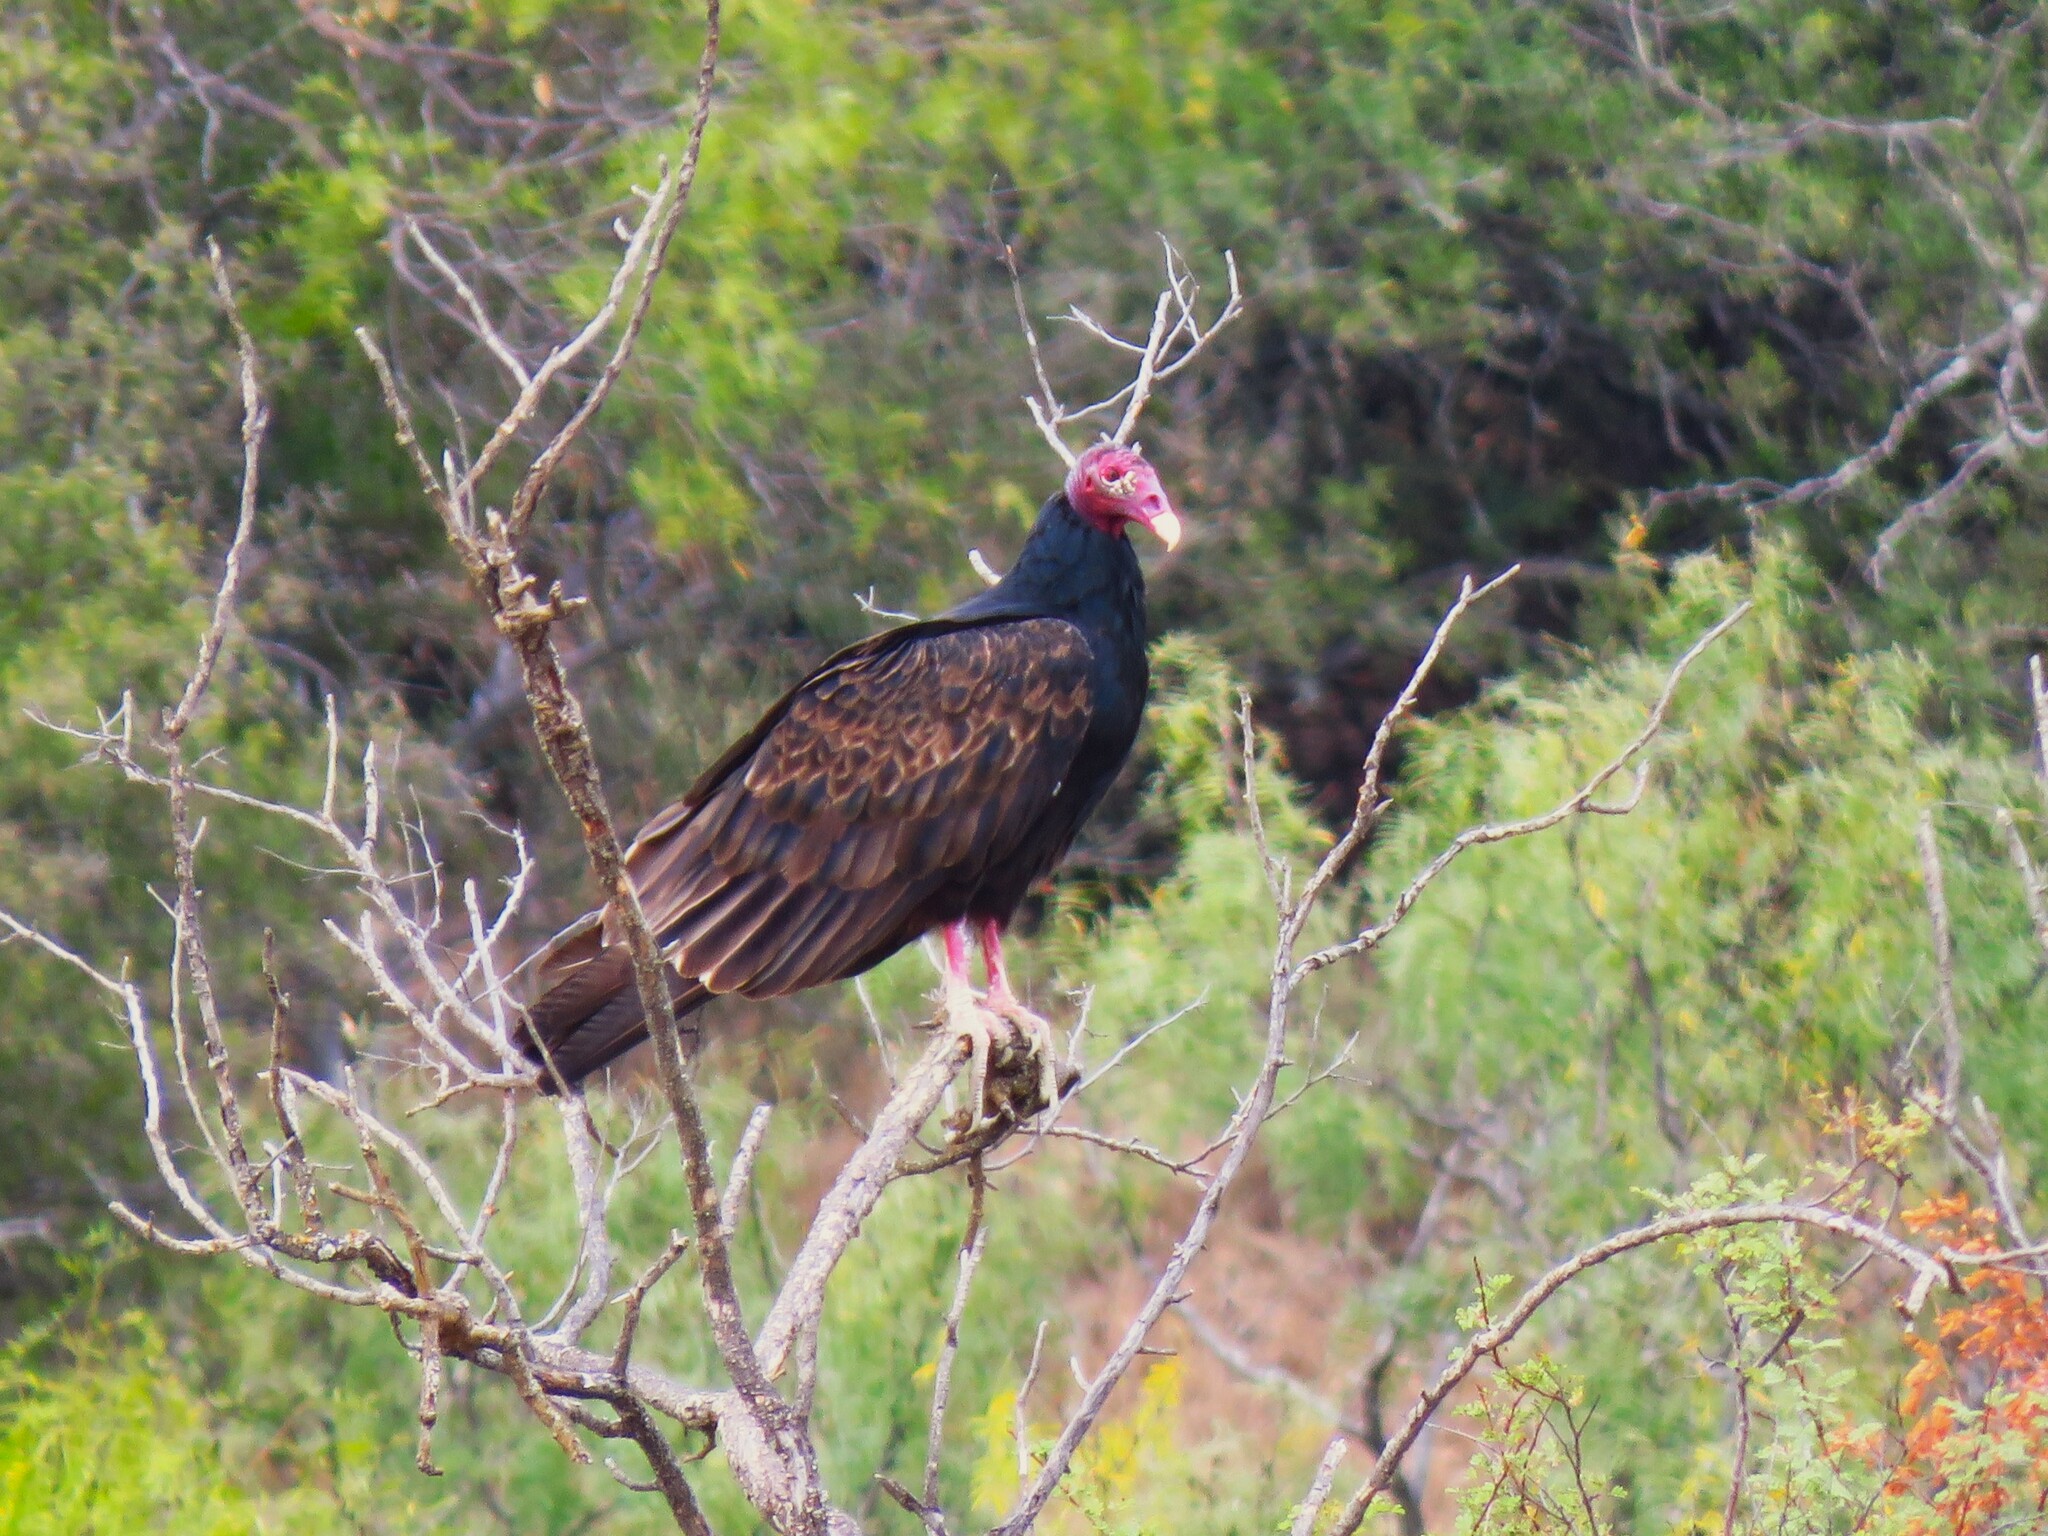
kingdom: Animalia
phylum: Chordata
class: Aves
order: Accipitriformes
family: Cathartidae
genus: Cathartes
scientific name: Cathartes aura
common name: Turkey vulture
